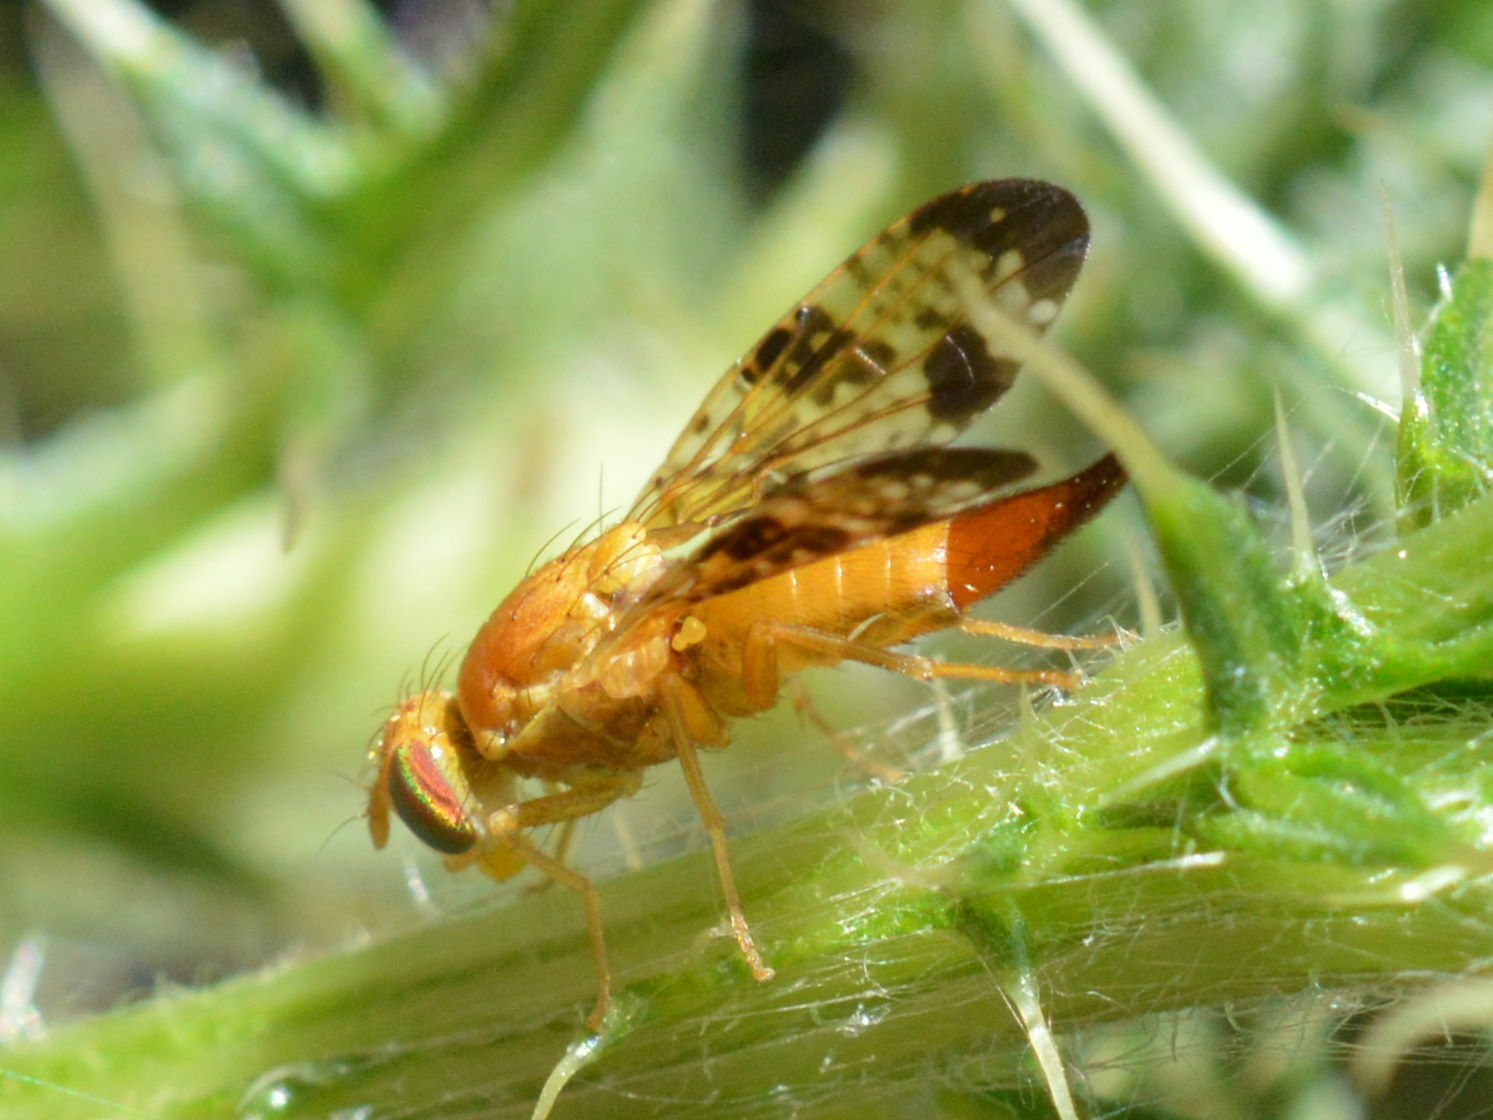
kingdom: Animalia
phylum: Arthropoda
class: Insecta
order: Diptera
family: Tephritidae
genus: Xyphosia
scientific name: Xyphosia miliaria
